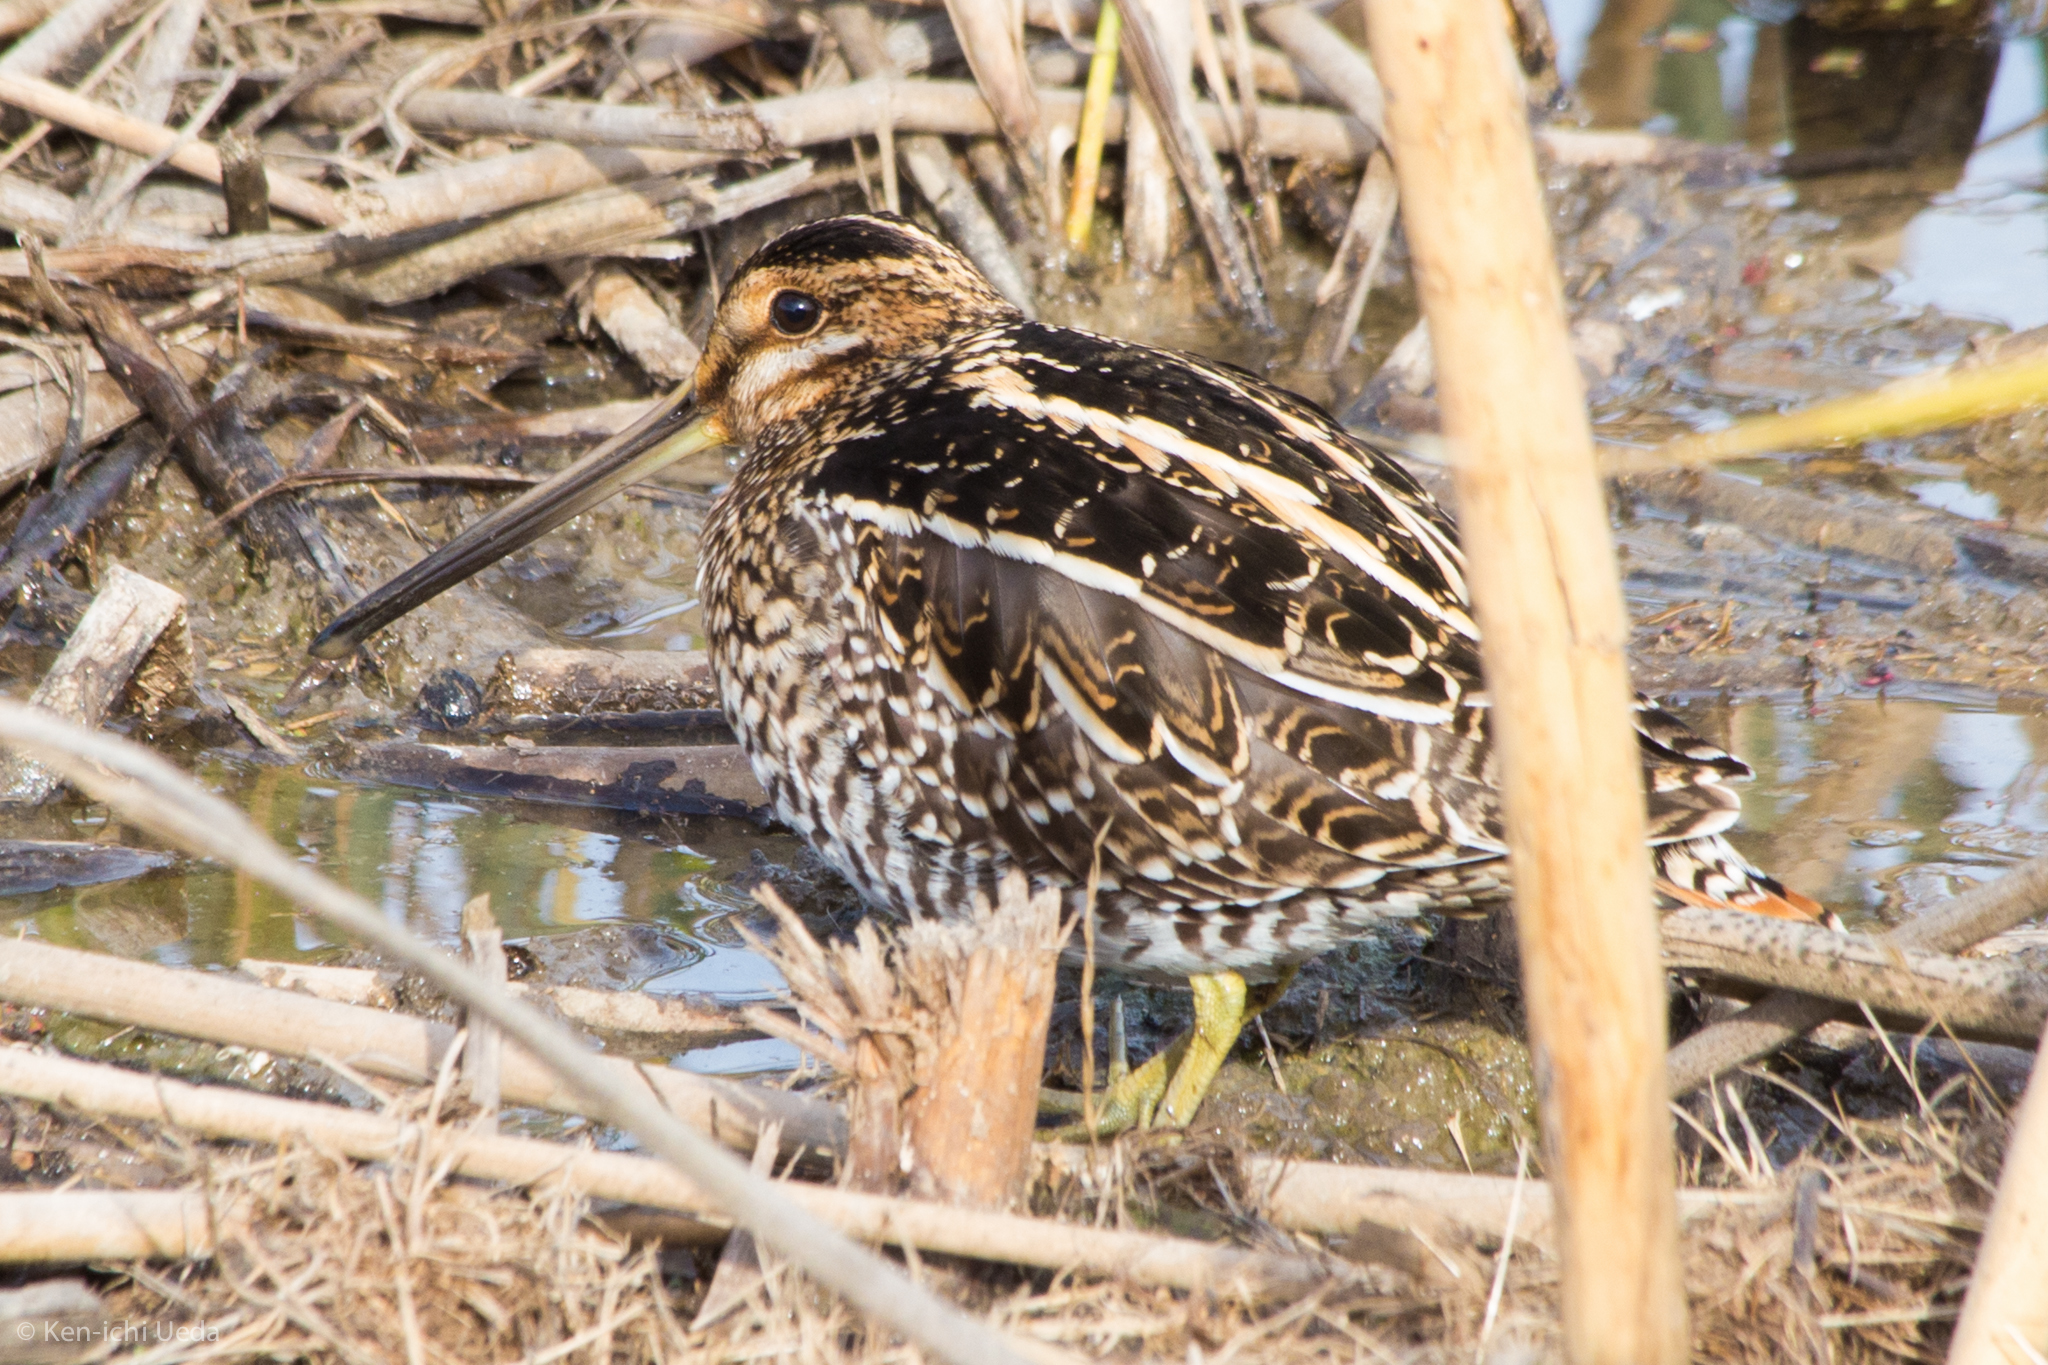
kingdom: Animalia
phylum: Chordata
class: Aves
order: Charadriiformes
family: Scolopacidae
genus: Gallinago
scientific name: Gallinago delicata
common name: Wilson's snipe
